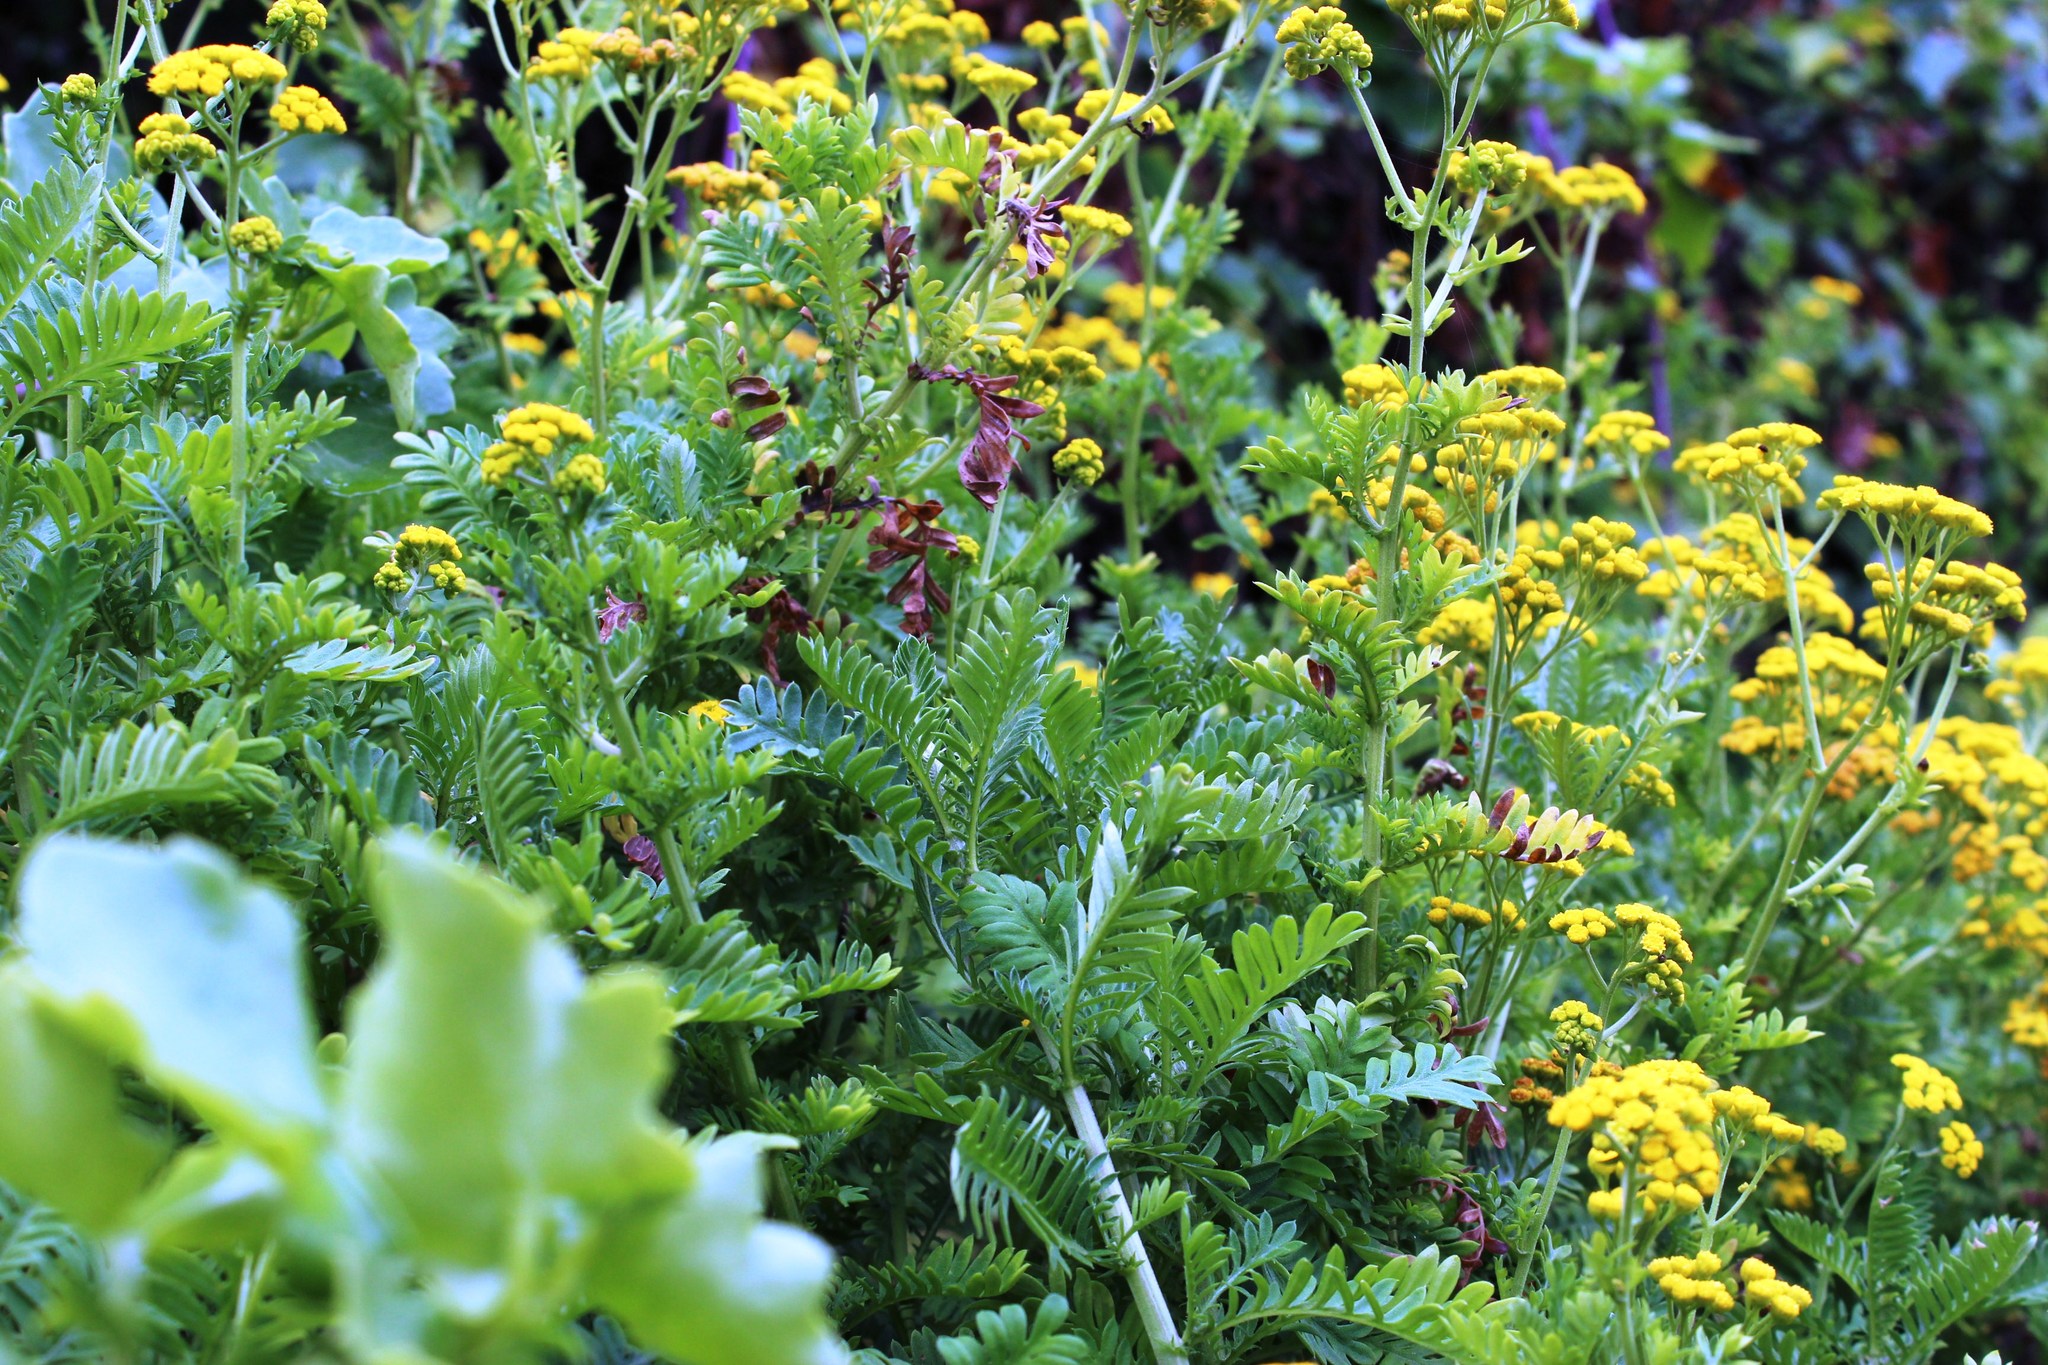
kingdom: Plantae
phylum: Tracheophyta
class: Magnoliopsida
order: Asterales
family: Asteraceae
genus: Hippia
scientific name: Hippia frutescens
